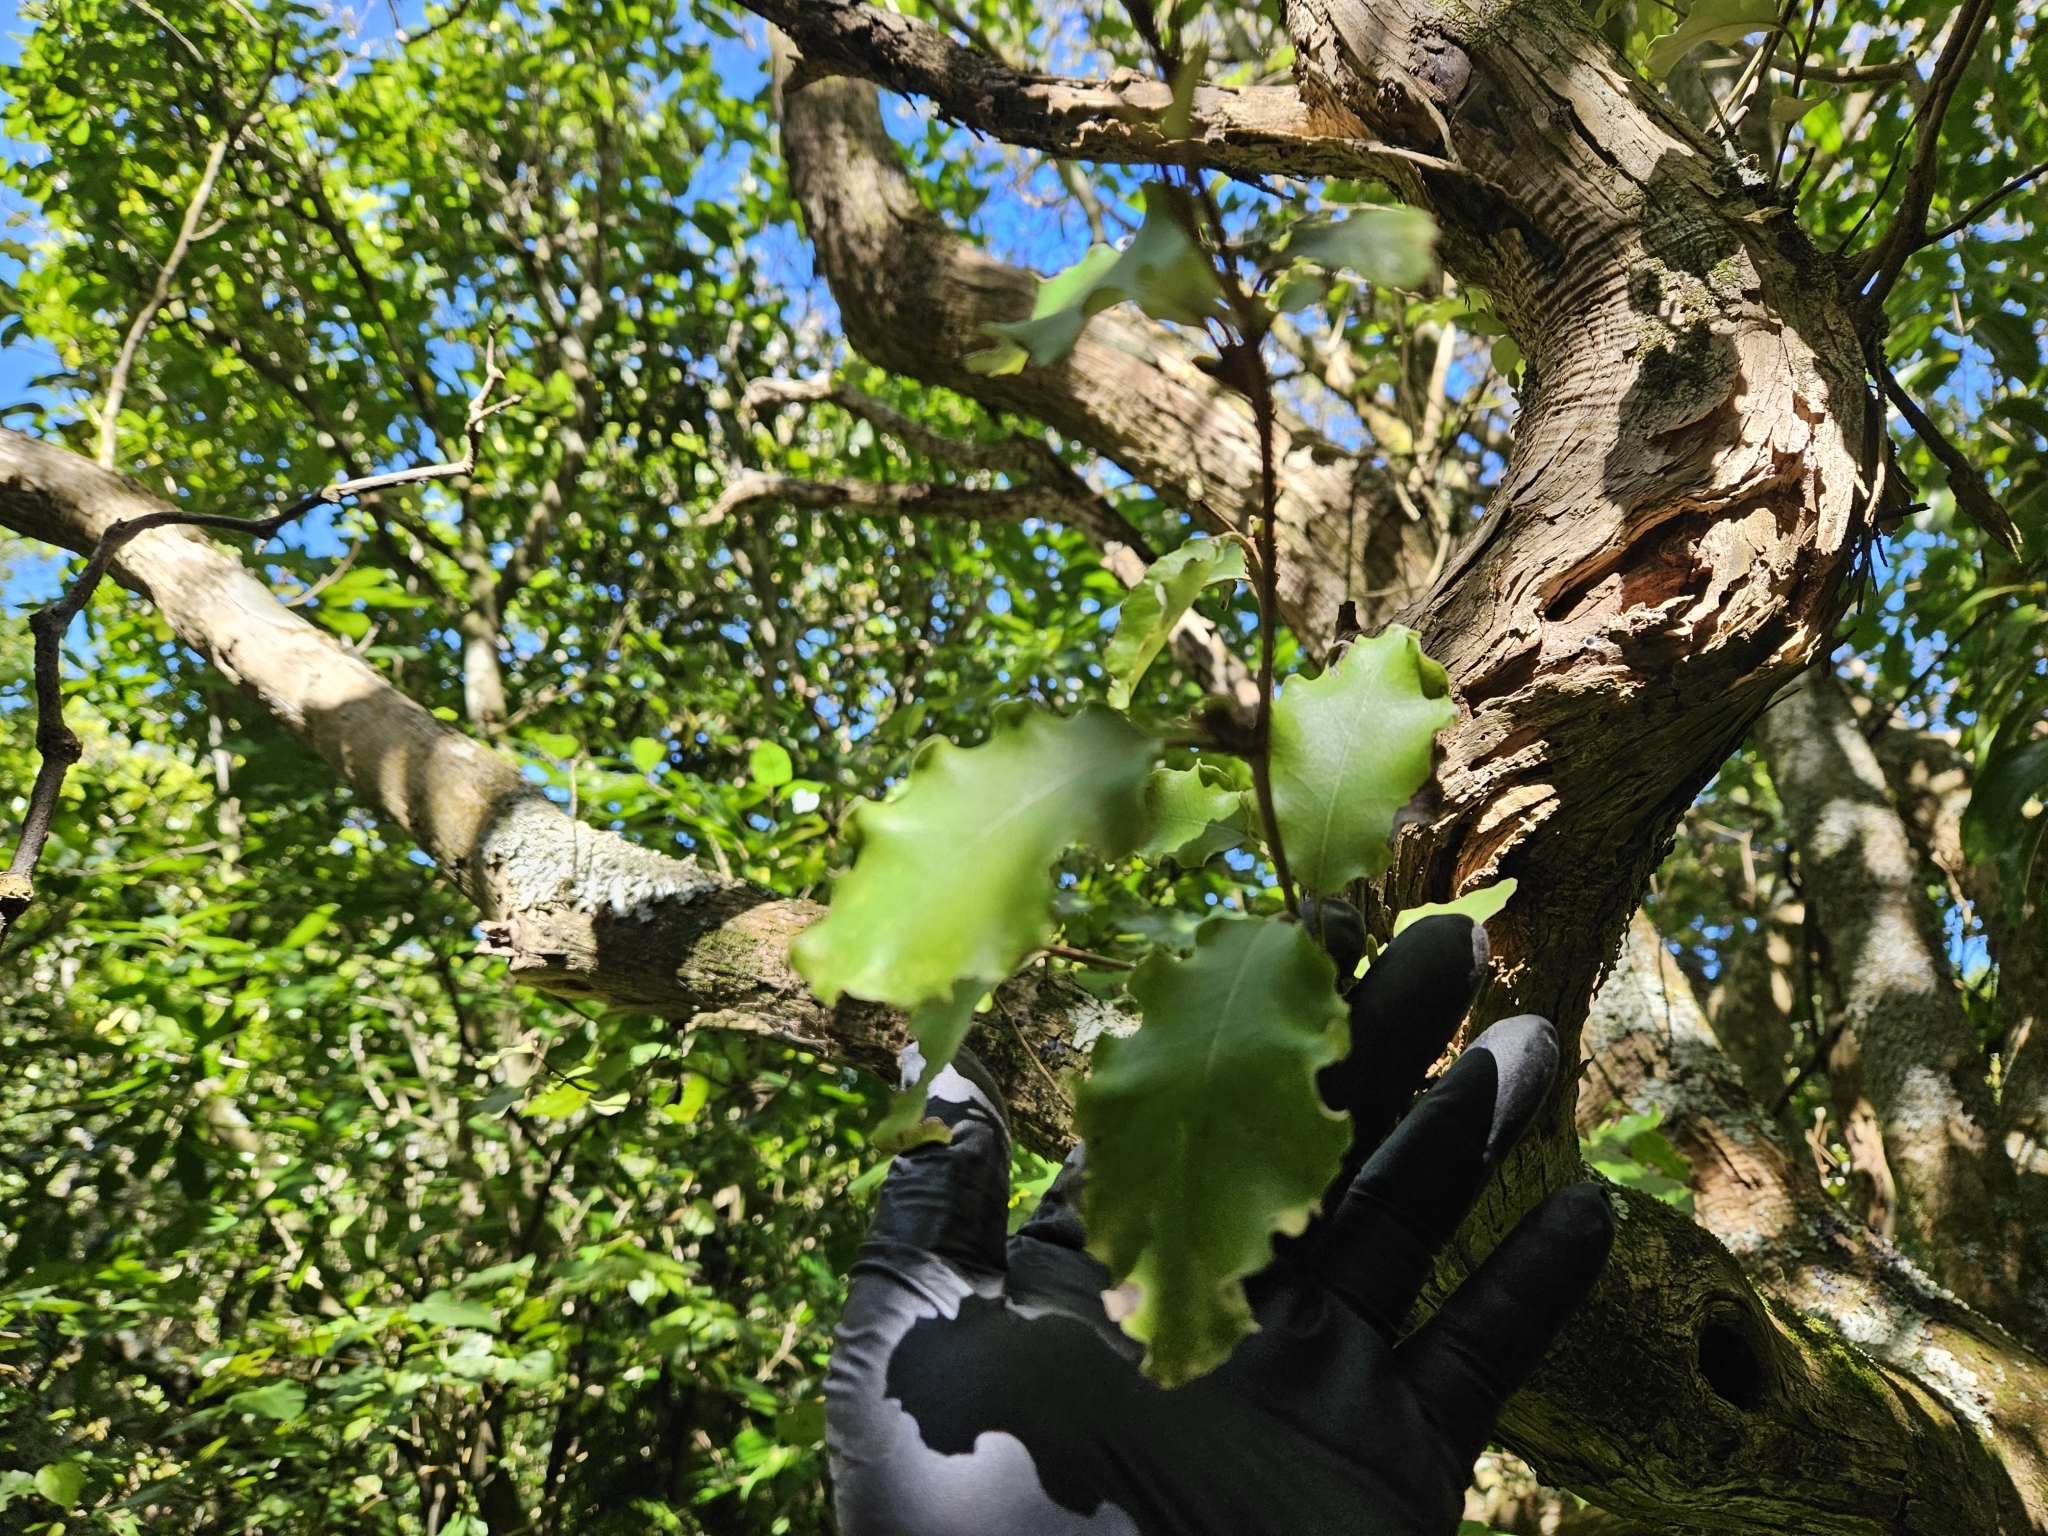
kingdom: Plantae
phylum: Tracheophyta
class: Magnoliopsida
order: Asterales
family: Asteraceae
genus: Olearia
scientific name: Olearia paniculata
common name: Akiraho
